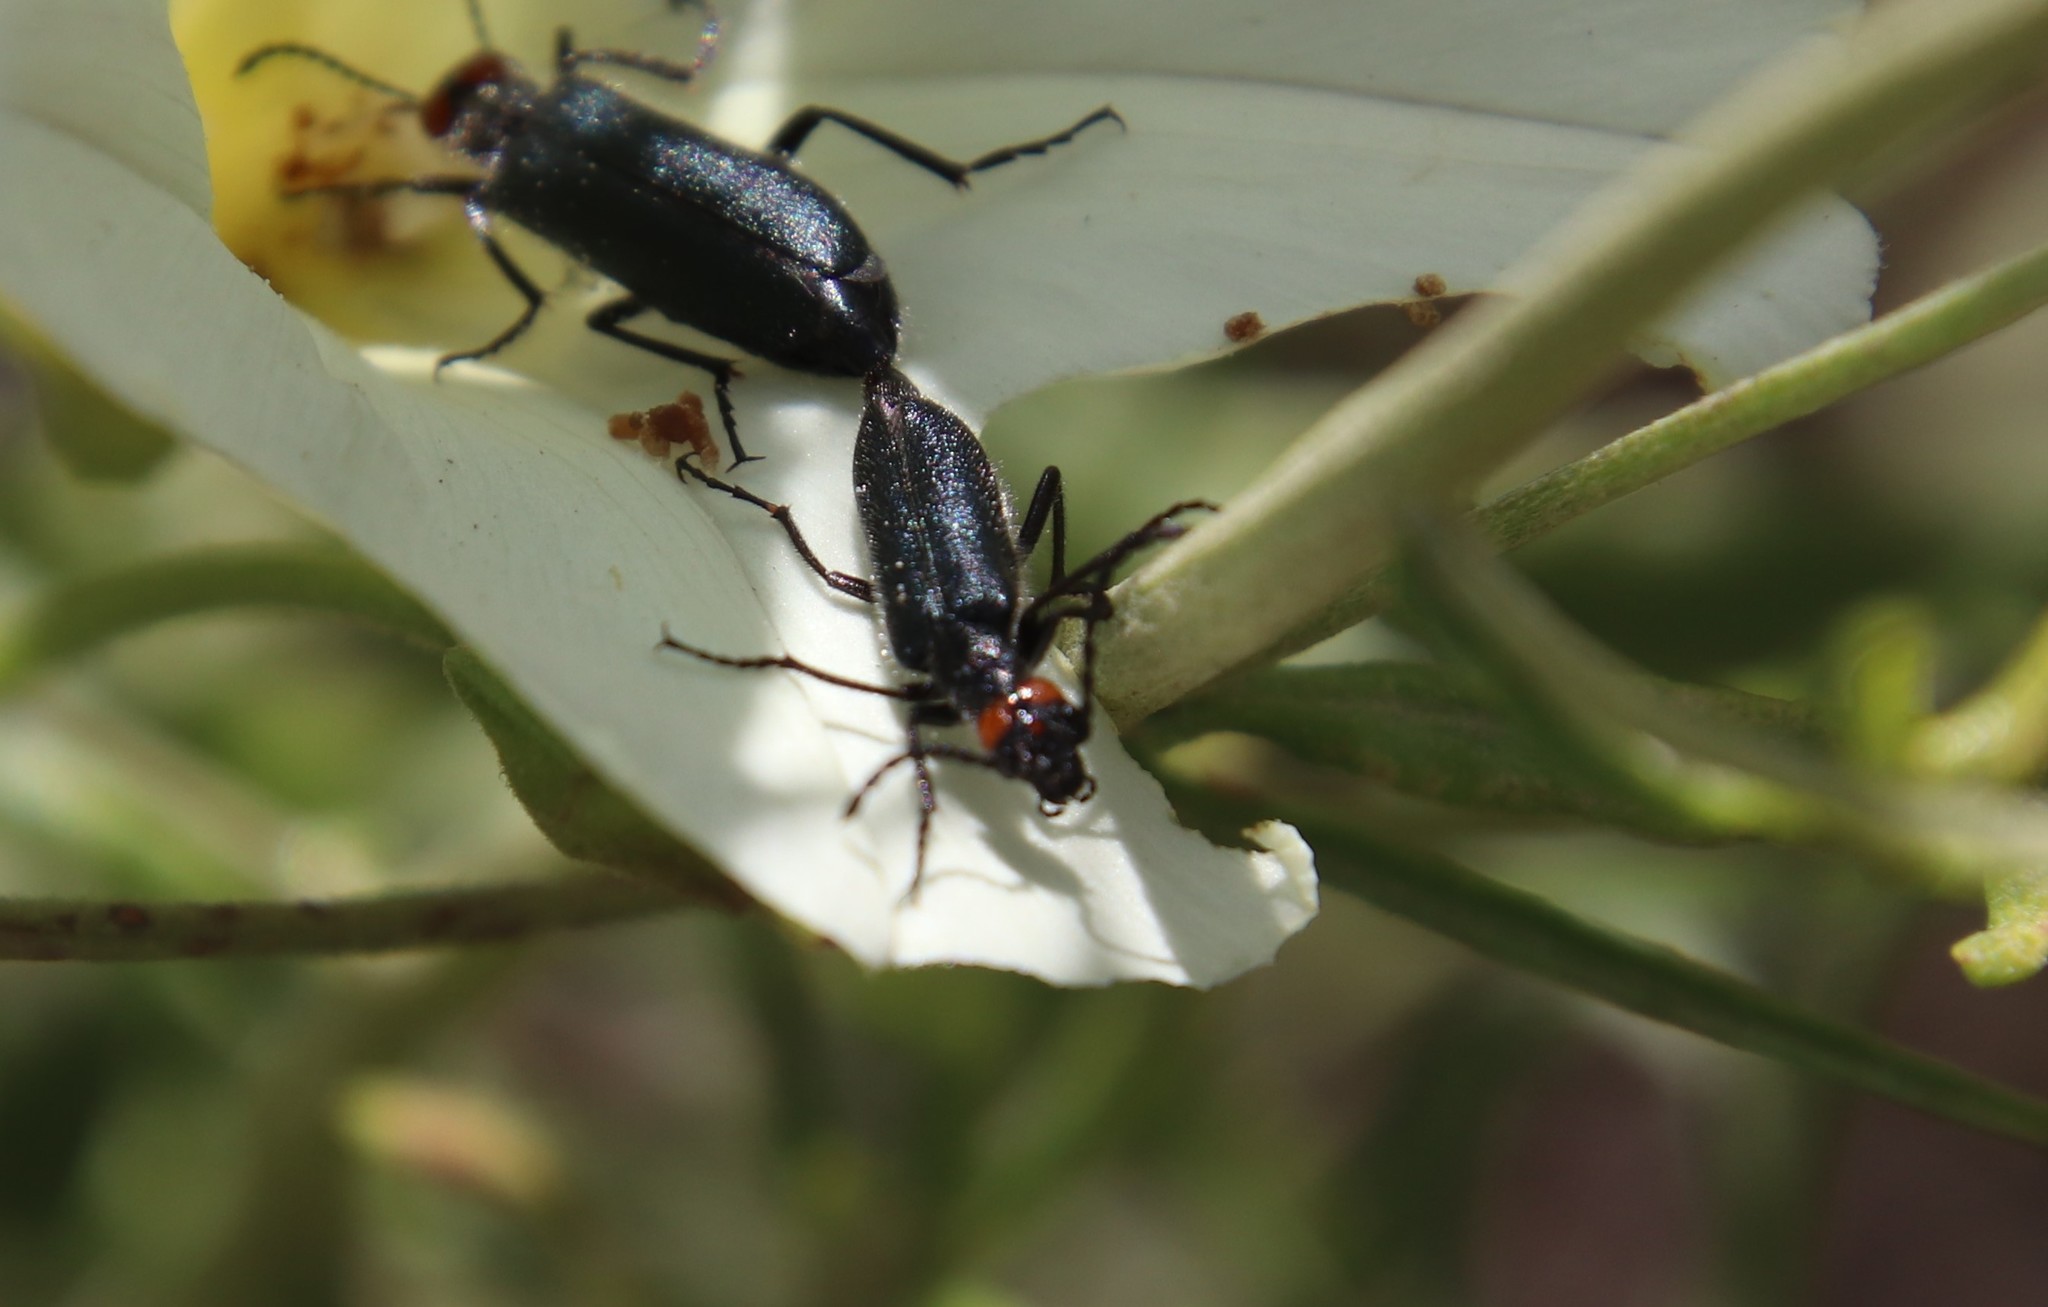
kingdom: Animalia
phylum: Arthropoda
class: Insecta
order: Coleoptera
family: Meloidae
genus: Lytta
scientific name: Lytta auriculata
